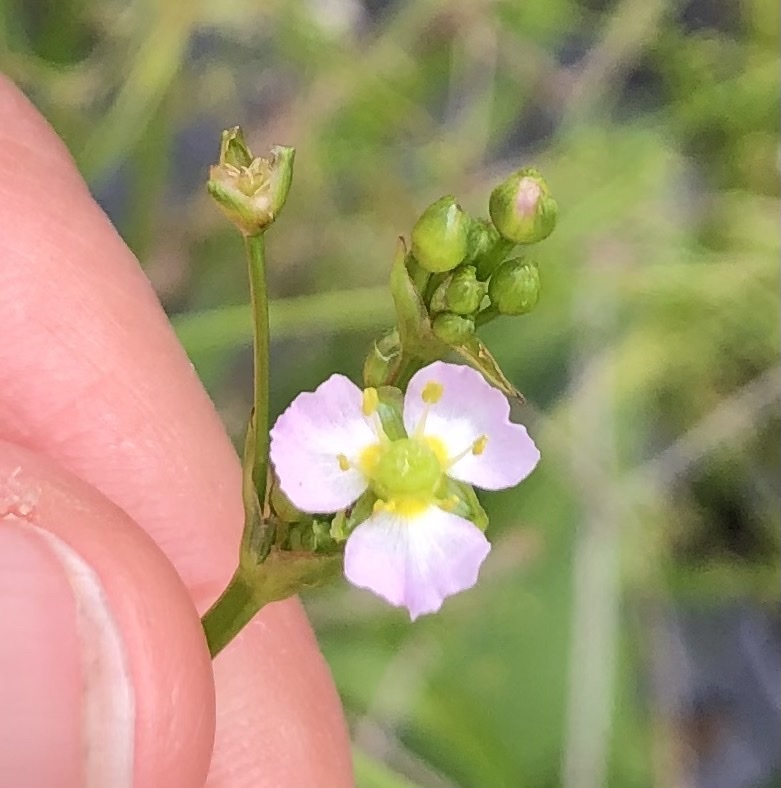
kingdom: Plantae
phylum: Tracheophyta
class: Liliopsida
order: Alismatales
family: Alismataceae
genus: Alisma
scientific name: Alisma plantago-aquatica
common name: Water-plantain
